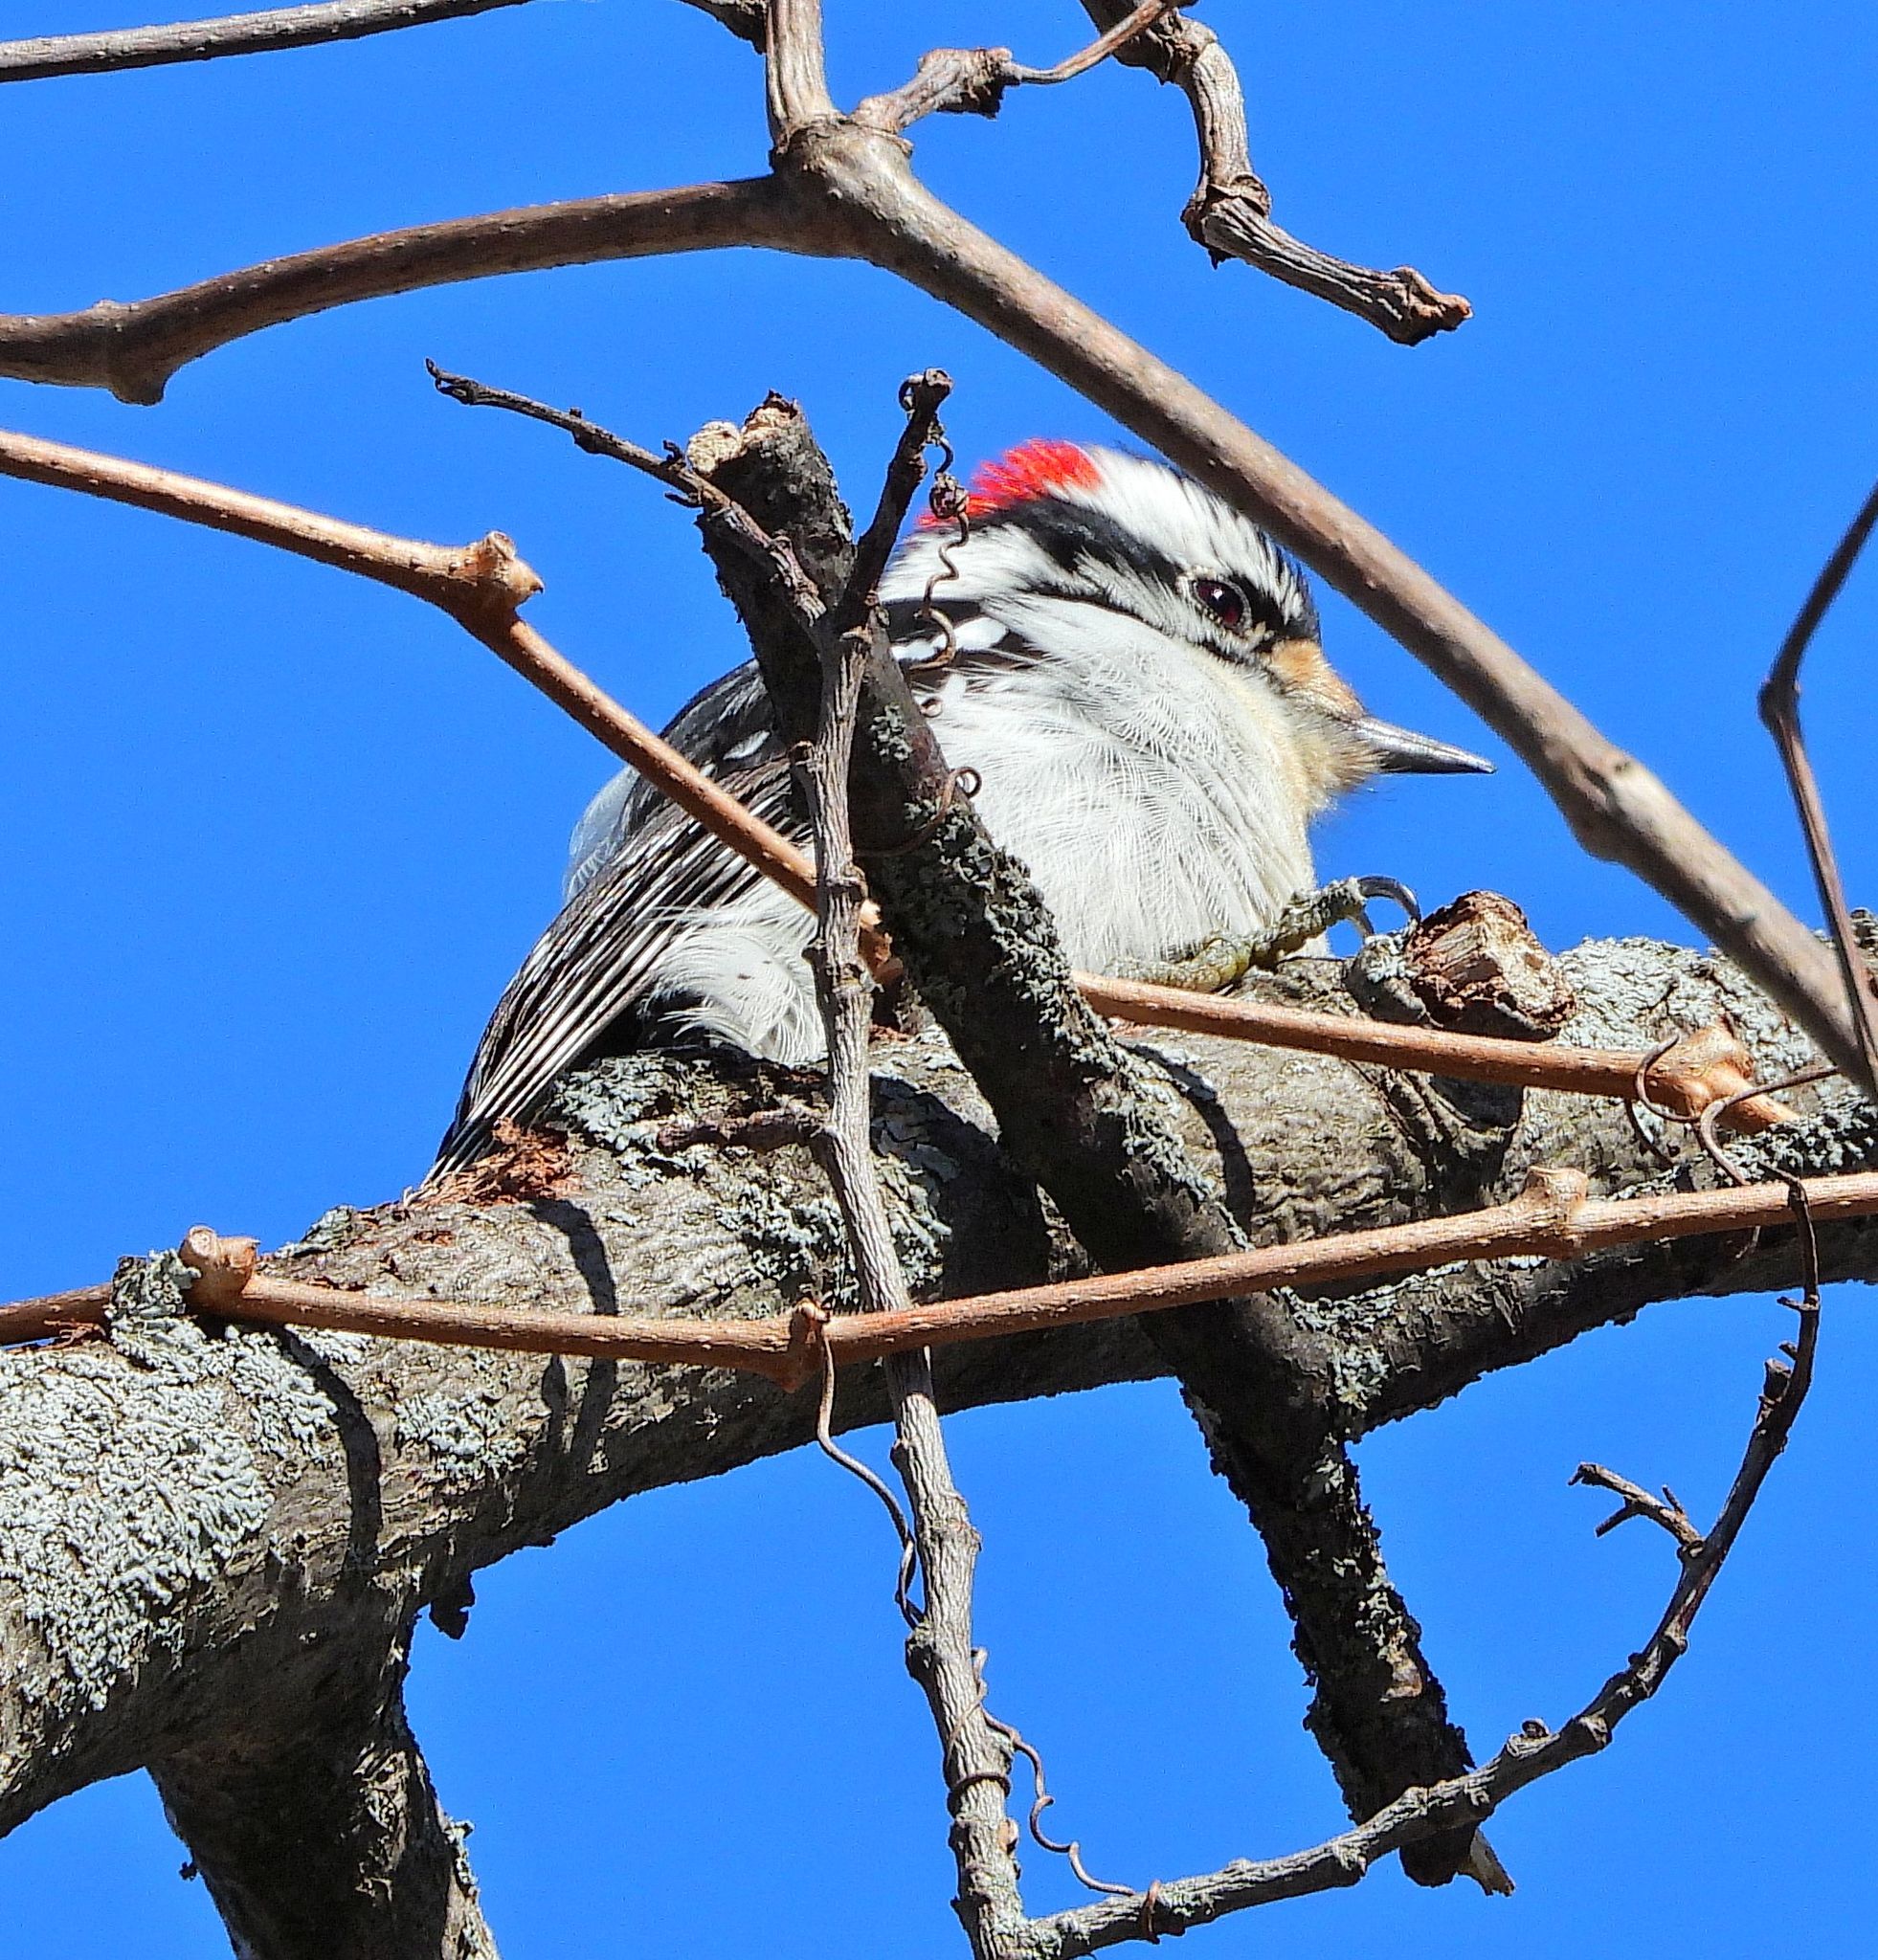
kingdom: Animalia
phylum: Chordata
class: Aves
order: Piciformes
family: Picidae
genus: Dryobates
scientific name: Dryobates pubescens
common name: Downy woodpecker
